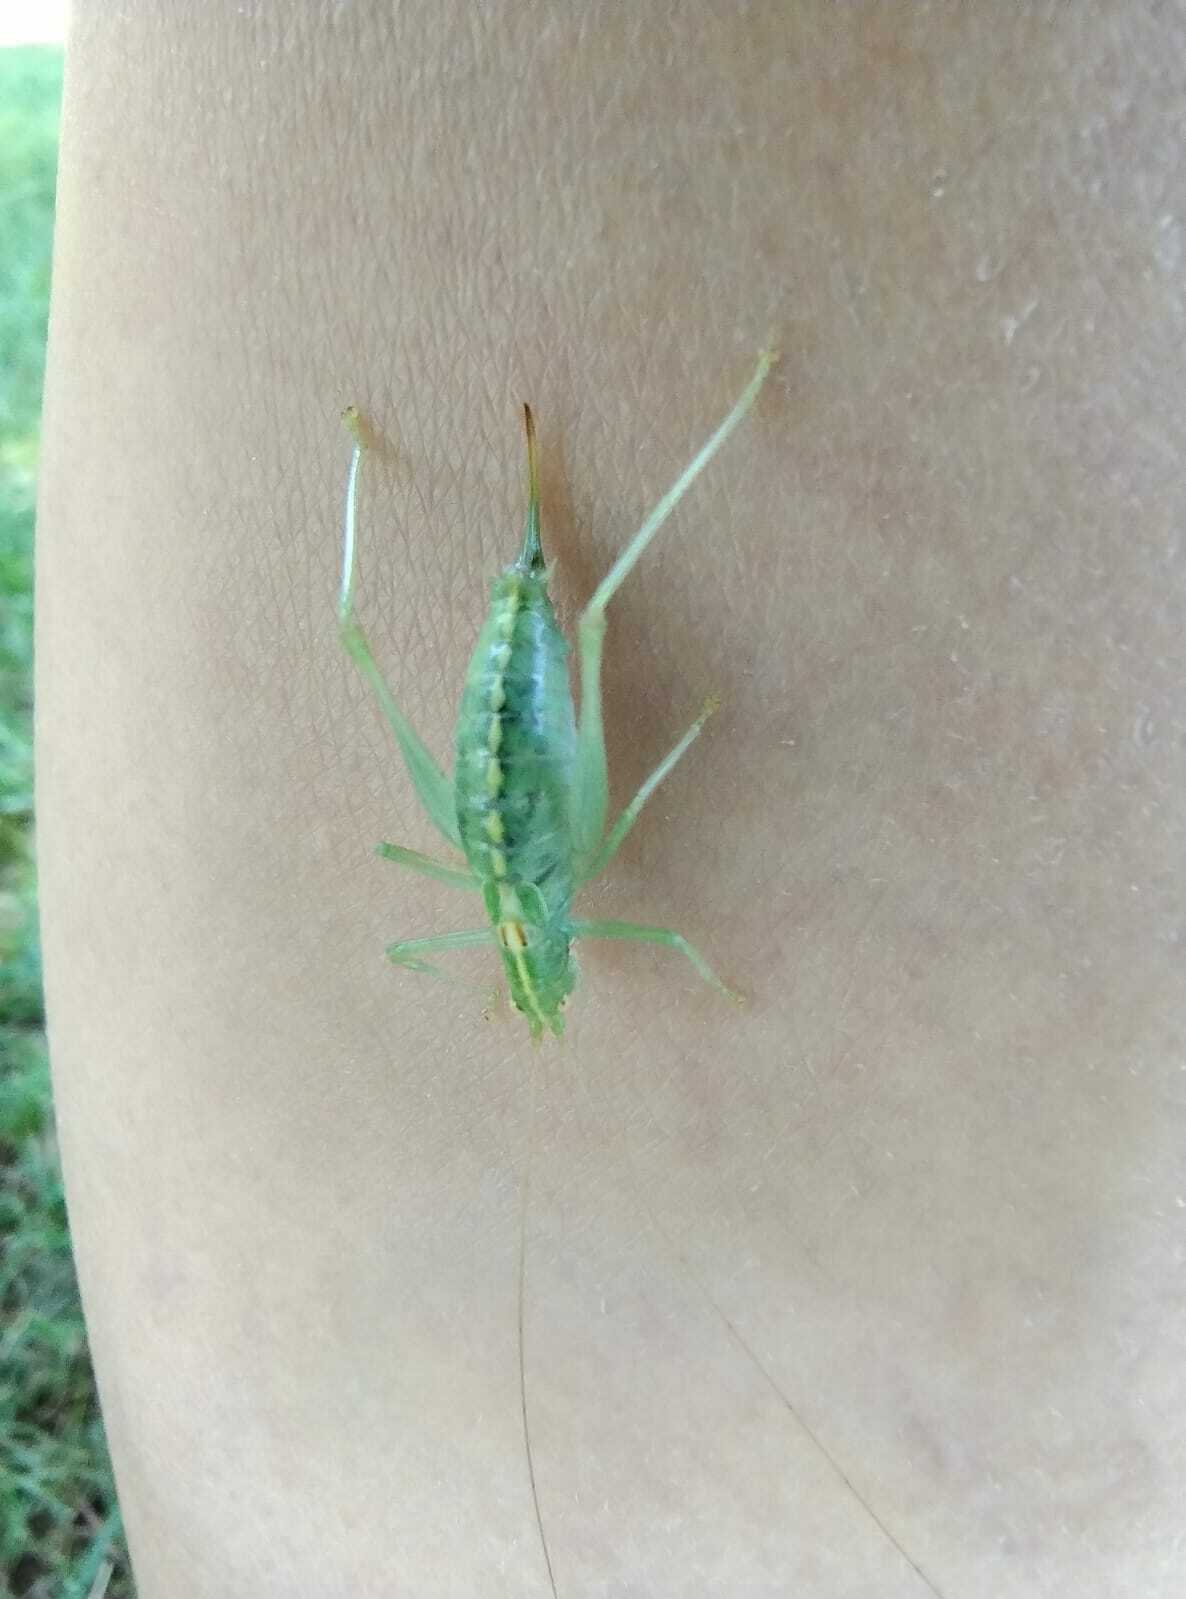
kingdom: Animalia
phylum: Arthropoda
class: Insecta
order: Orthoptera
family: Tettigoniidae
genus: Meconema
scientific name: Meconema meridionale
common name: Southern oak bush-cricket
